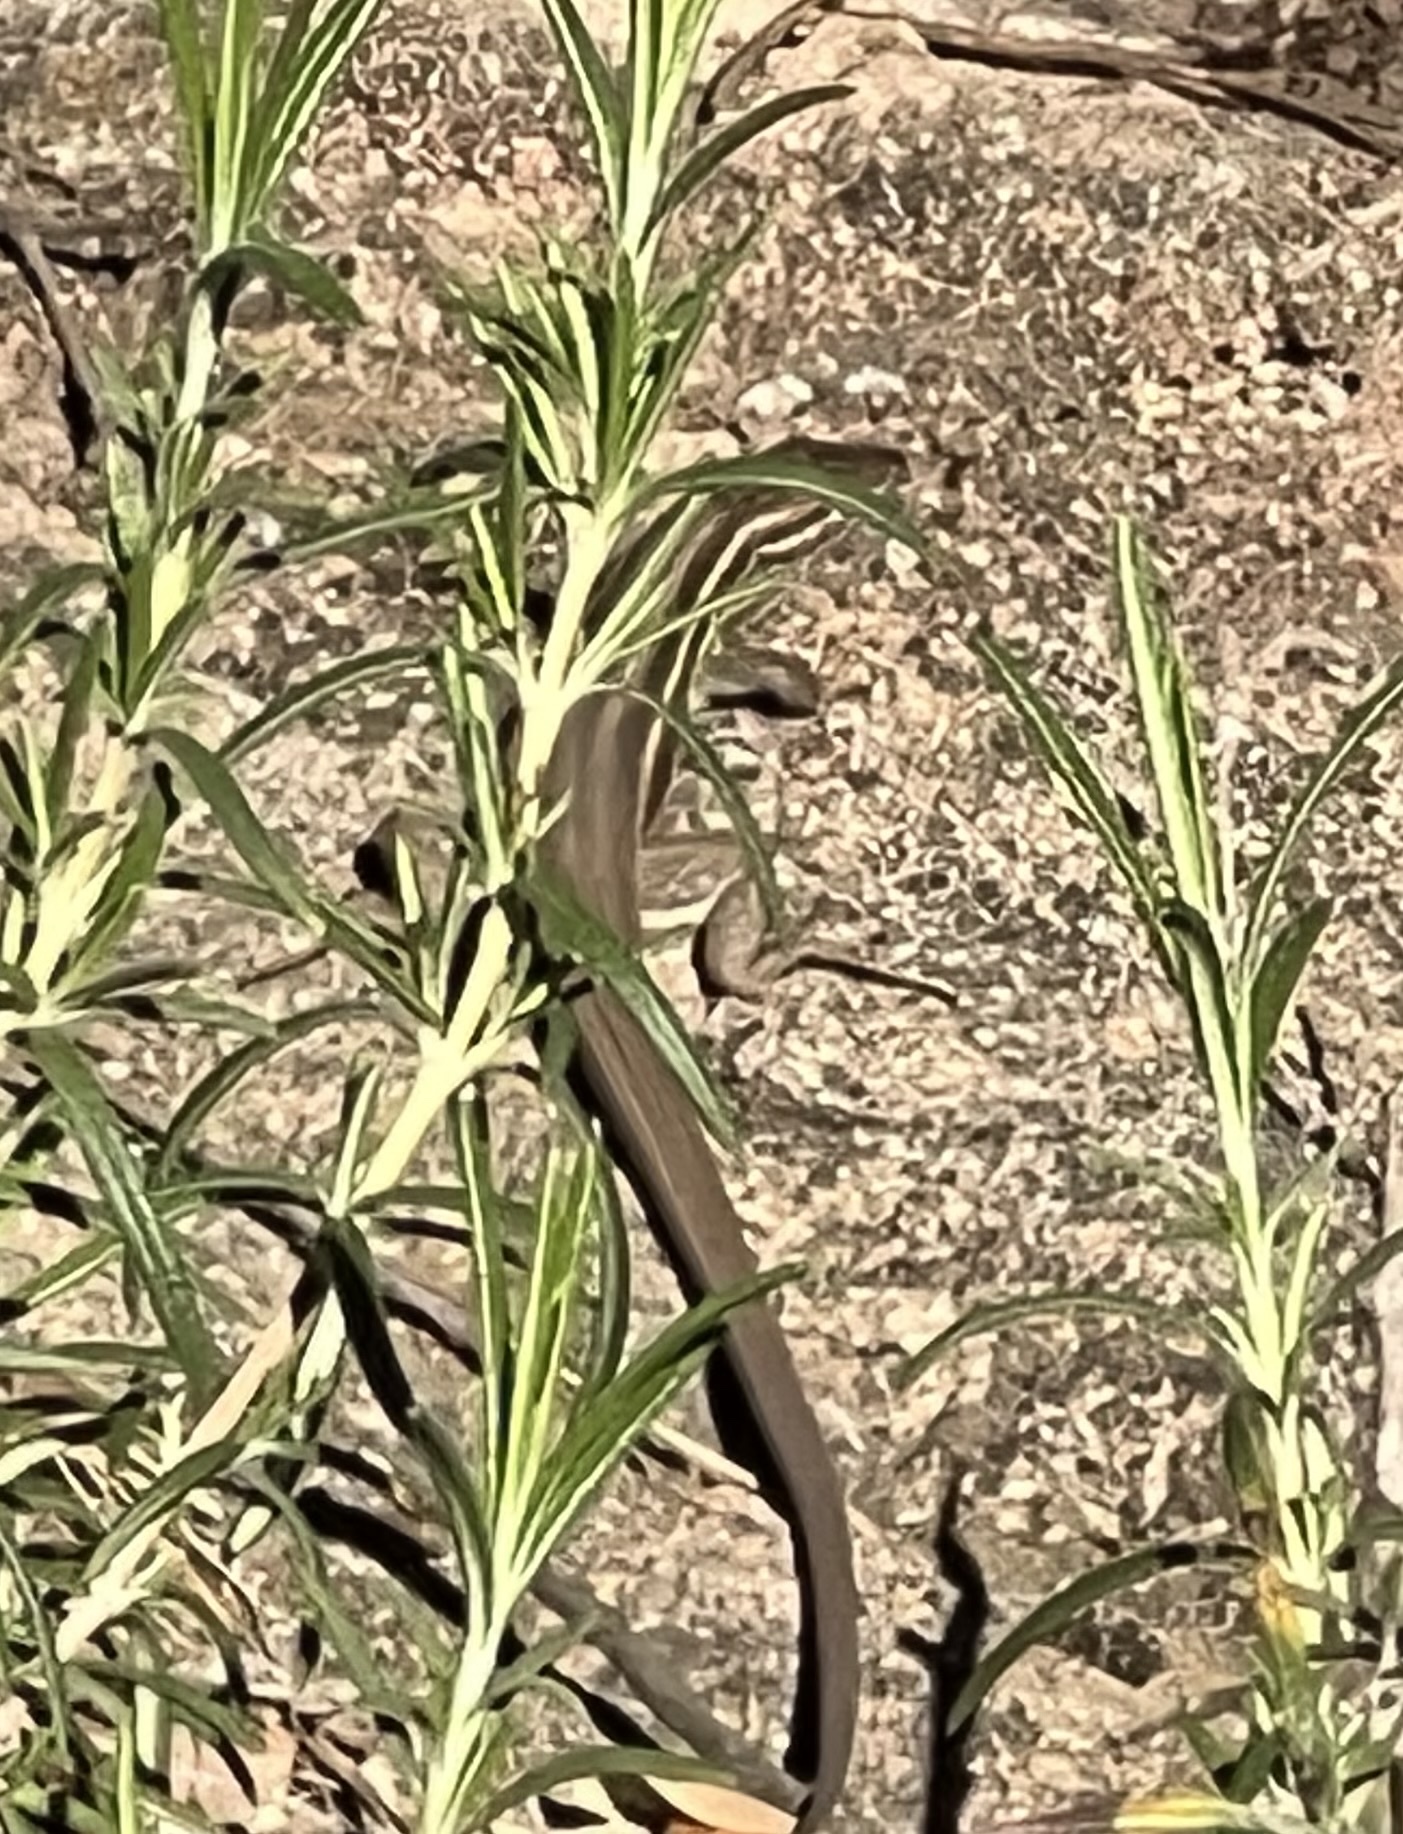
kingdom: Animalia
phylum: Chordata
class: Squamata
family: Lacertidae
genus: Psammodromus
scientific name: Psammodromus algirus
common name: Algerian psammodromus
